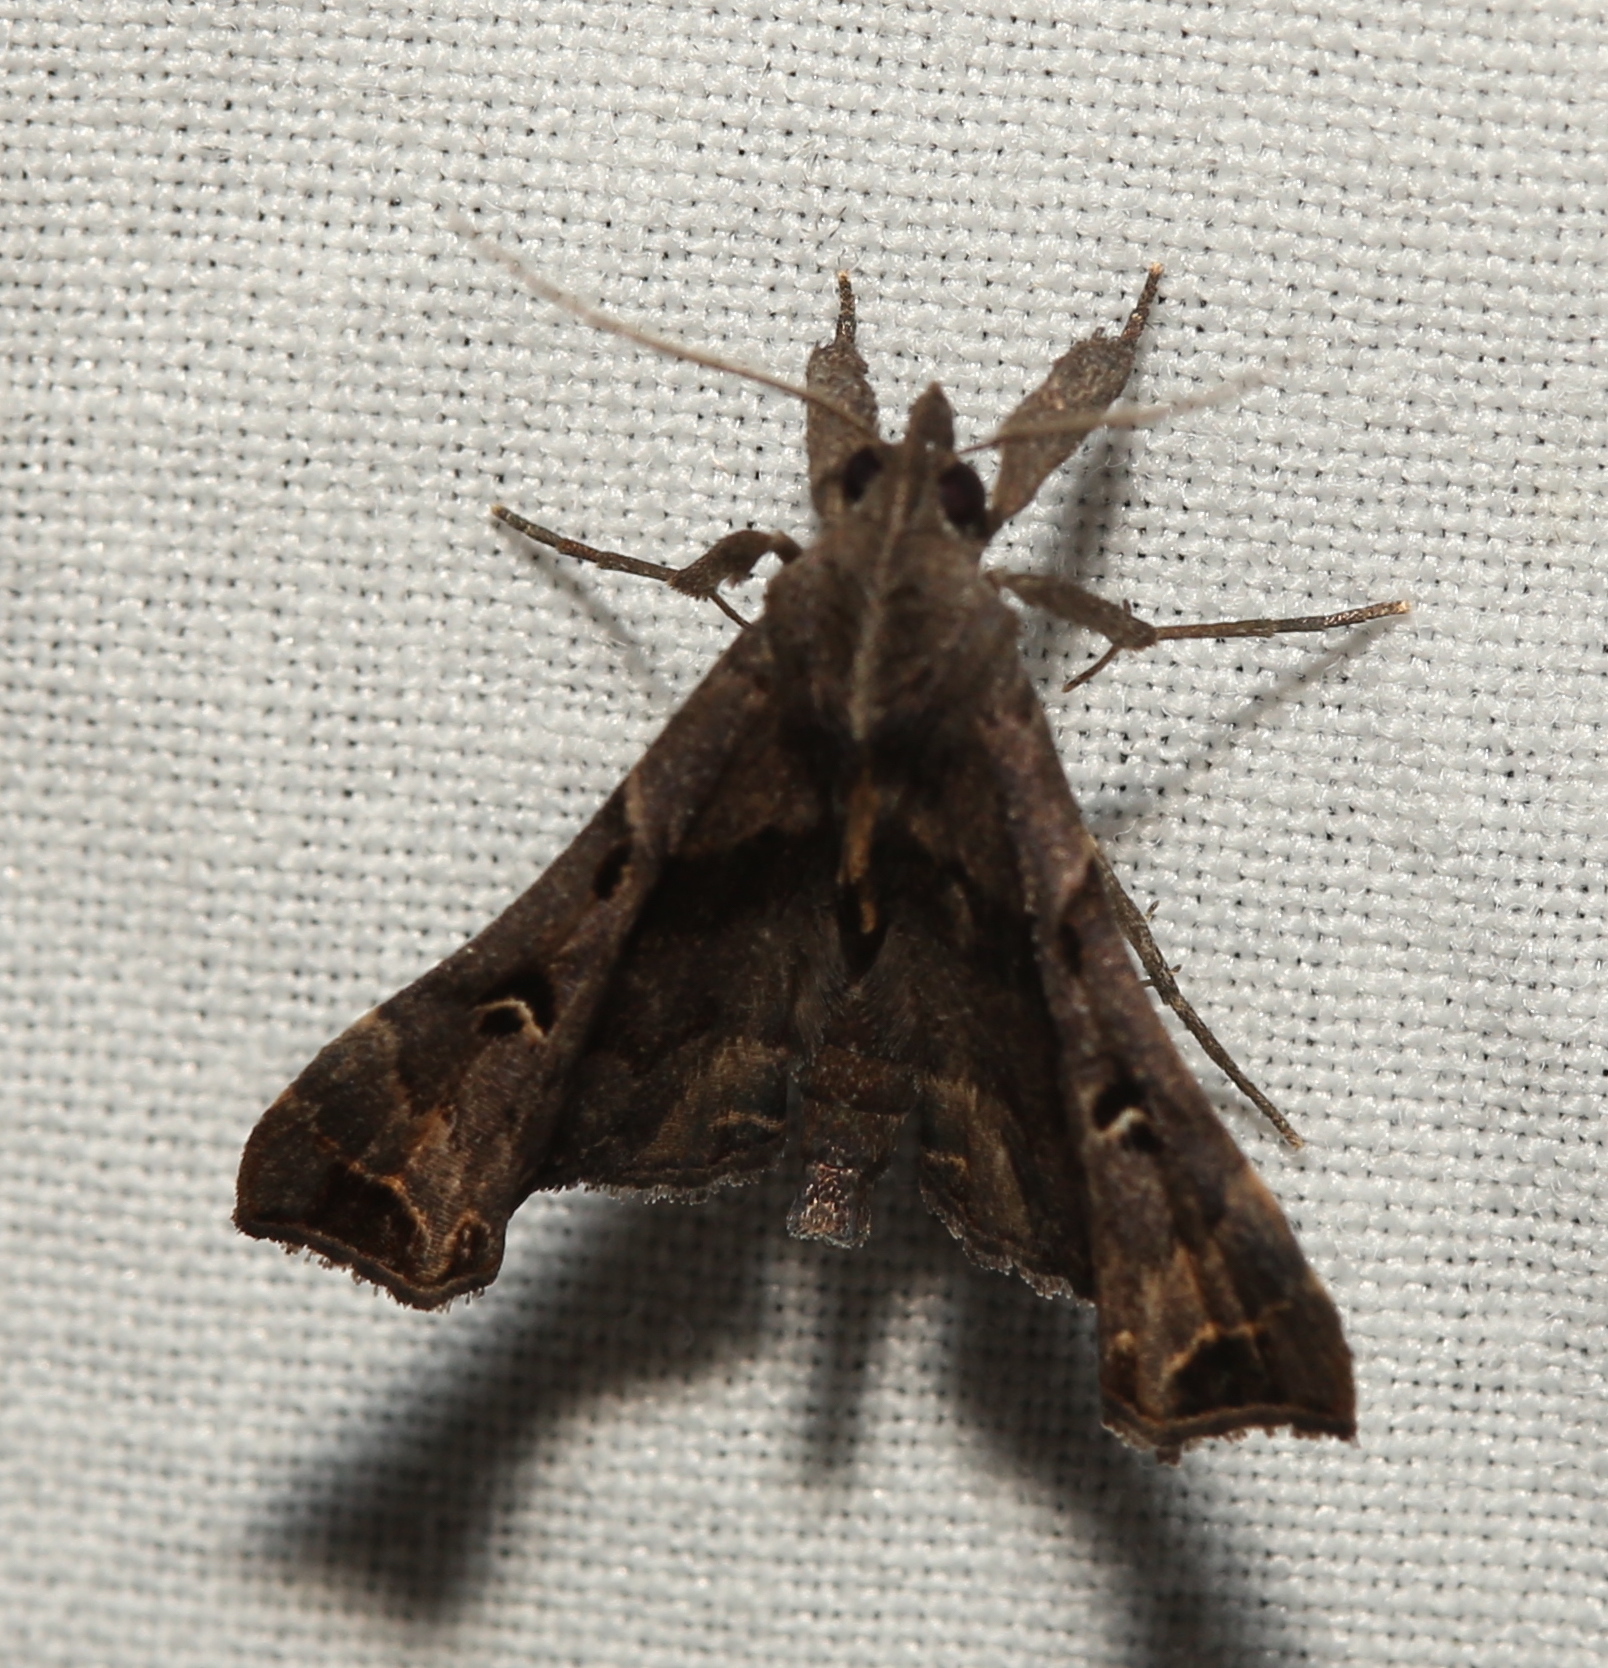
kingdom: Animalia
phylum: Arthropoda
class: Insecta
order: Lepidoptera
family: Erebidae
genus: Palthis
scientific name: Palthis asopialis
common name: Faint-spotted palthis moth
